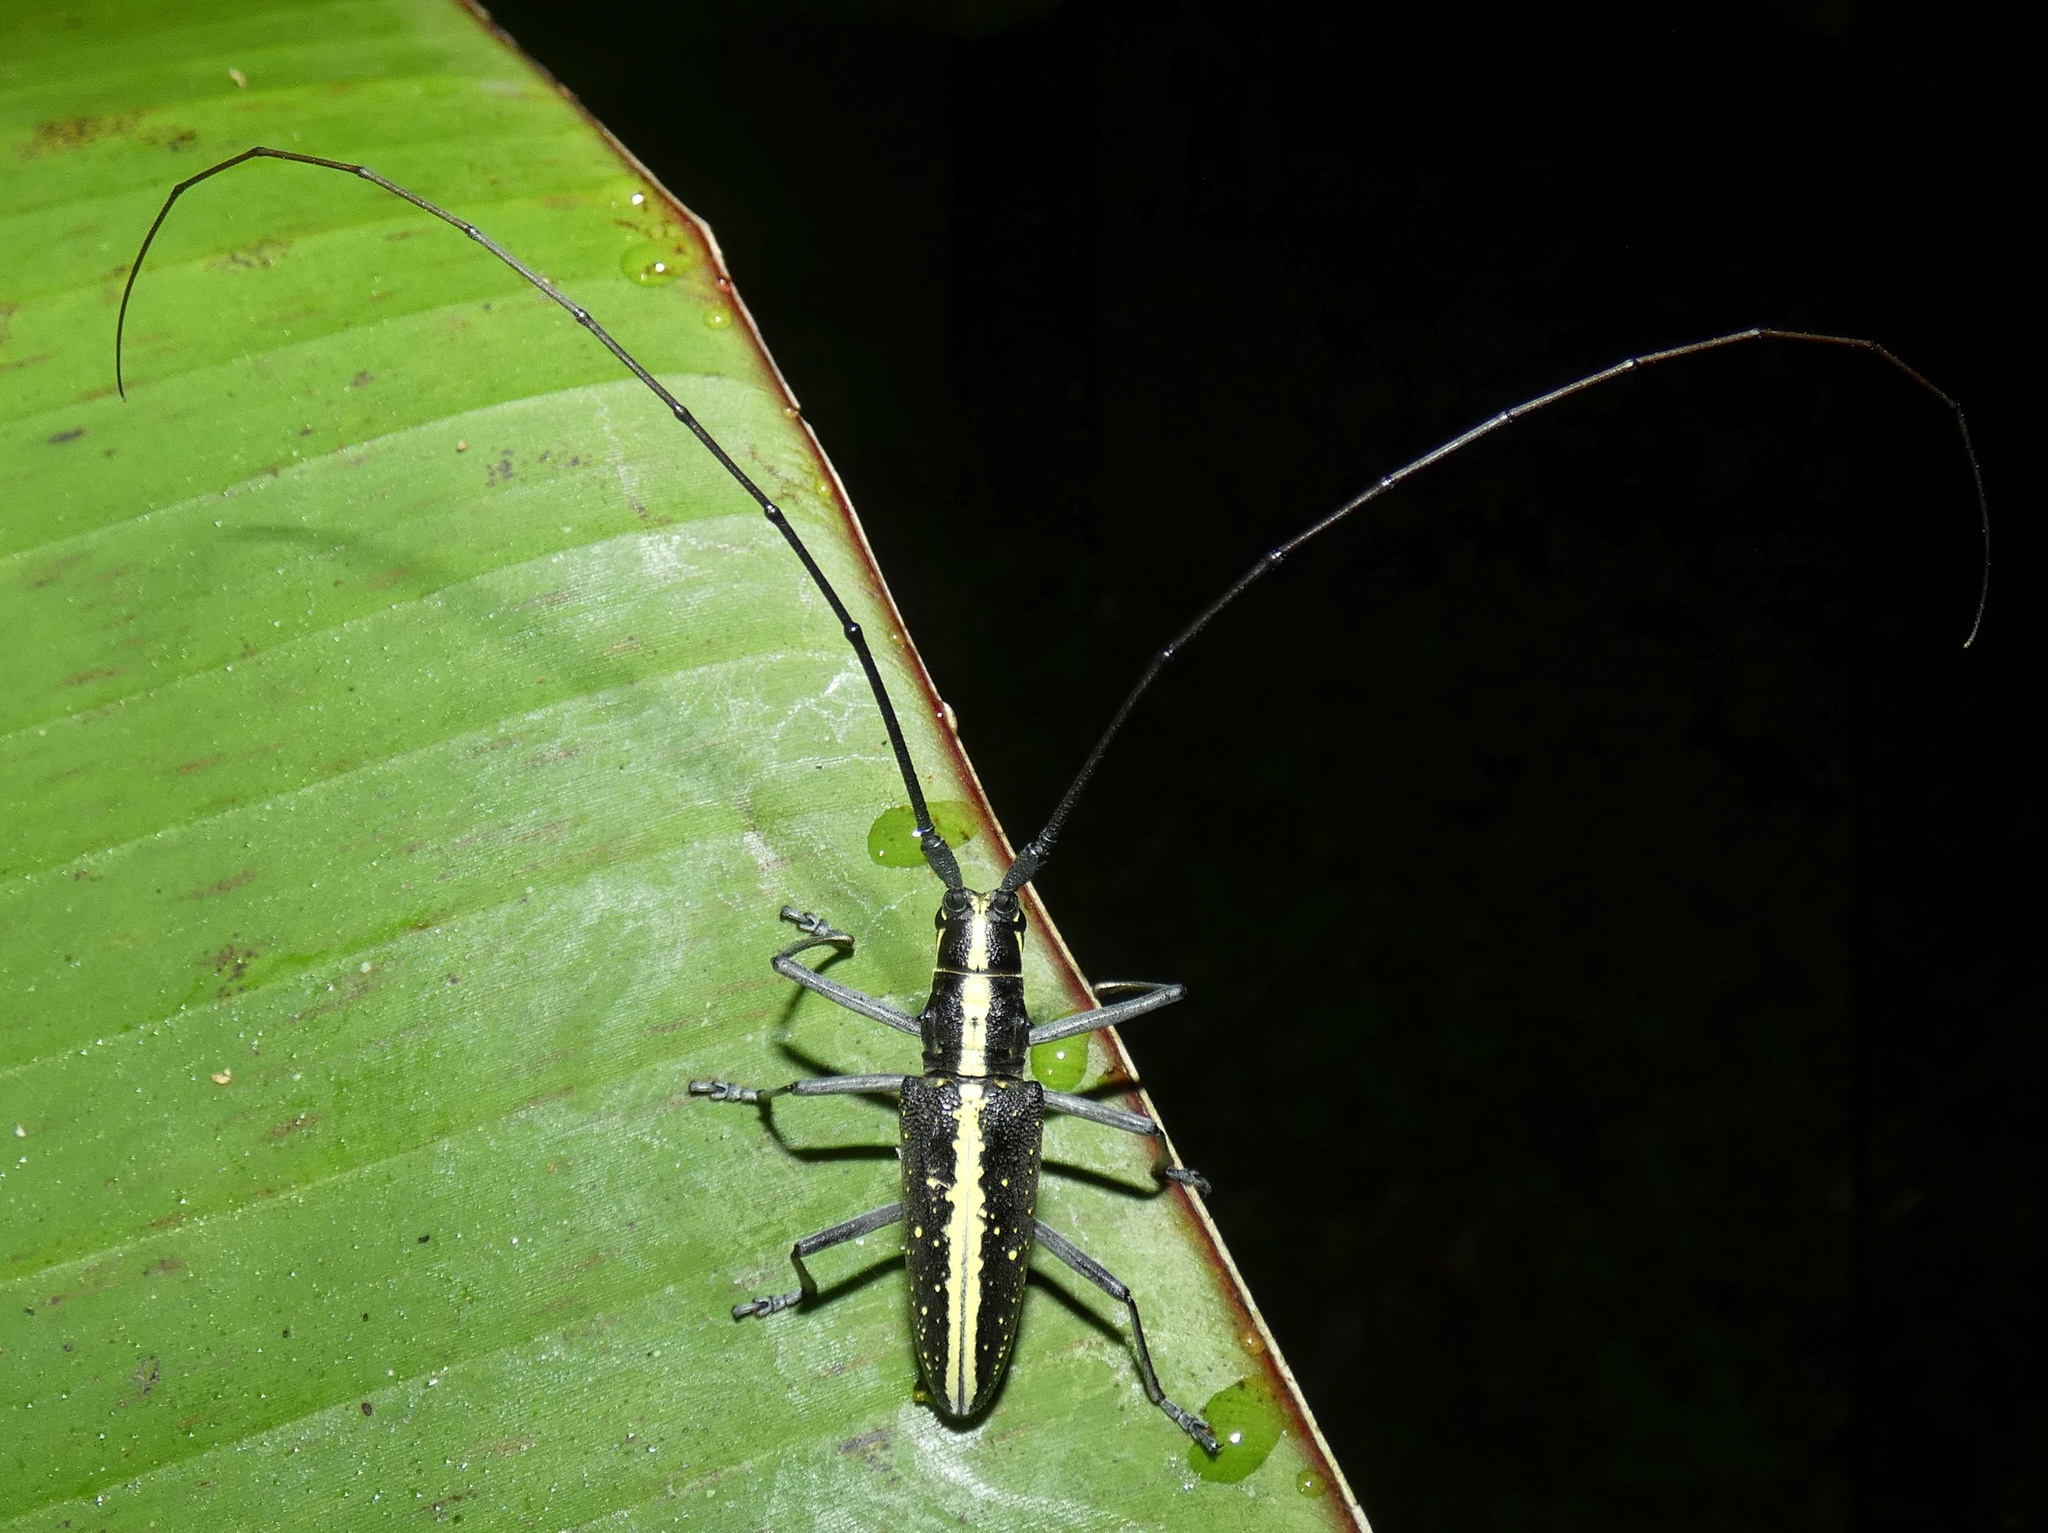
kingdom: Animalia
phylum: Arthropoda
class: Insecta
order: Coleoptera
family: Cerambycidae
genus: Taeniotes
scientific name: Taeniotes scalatus
